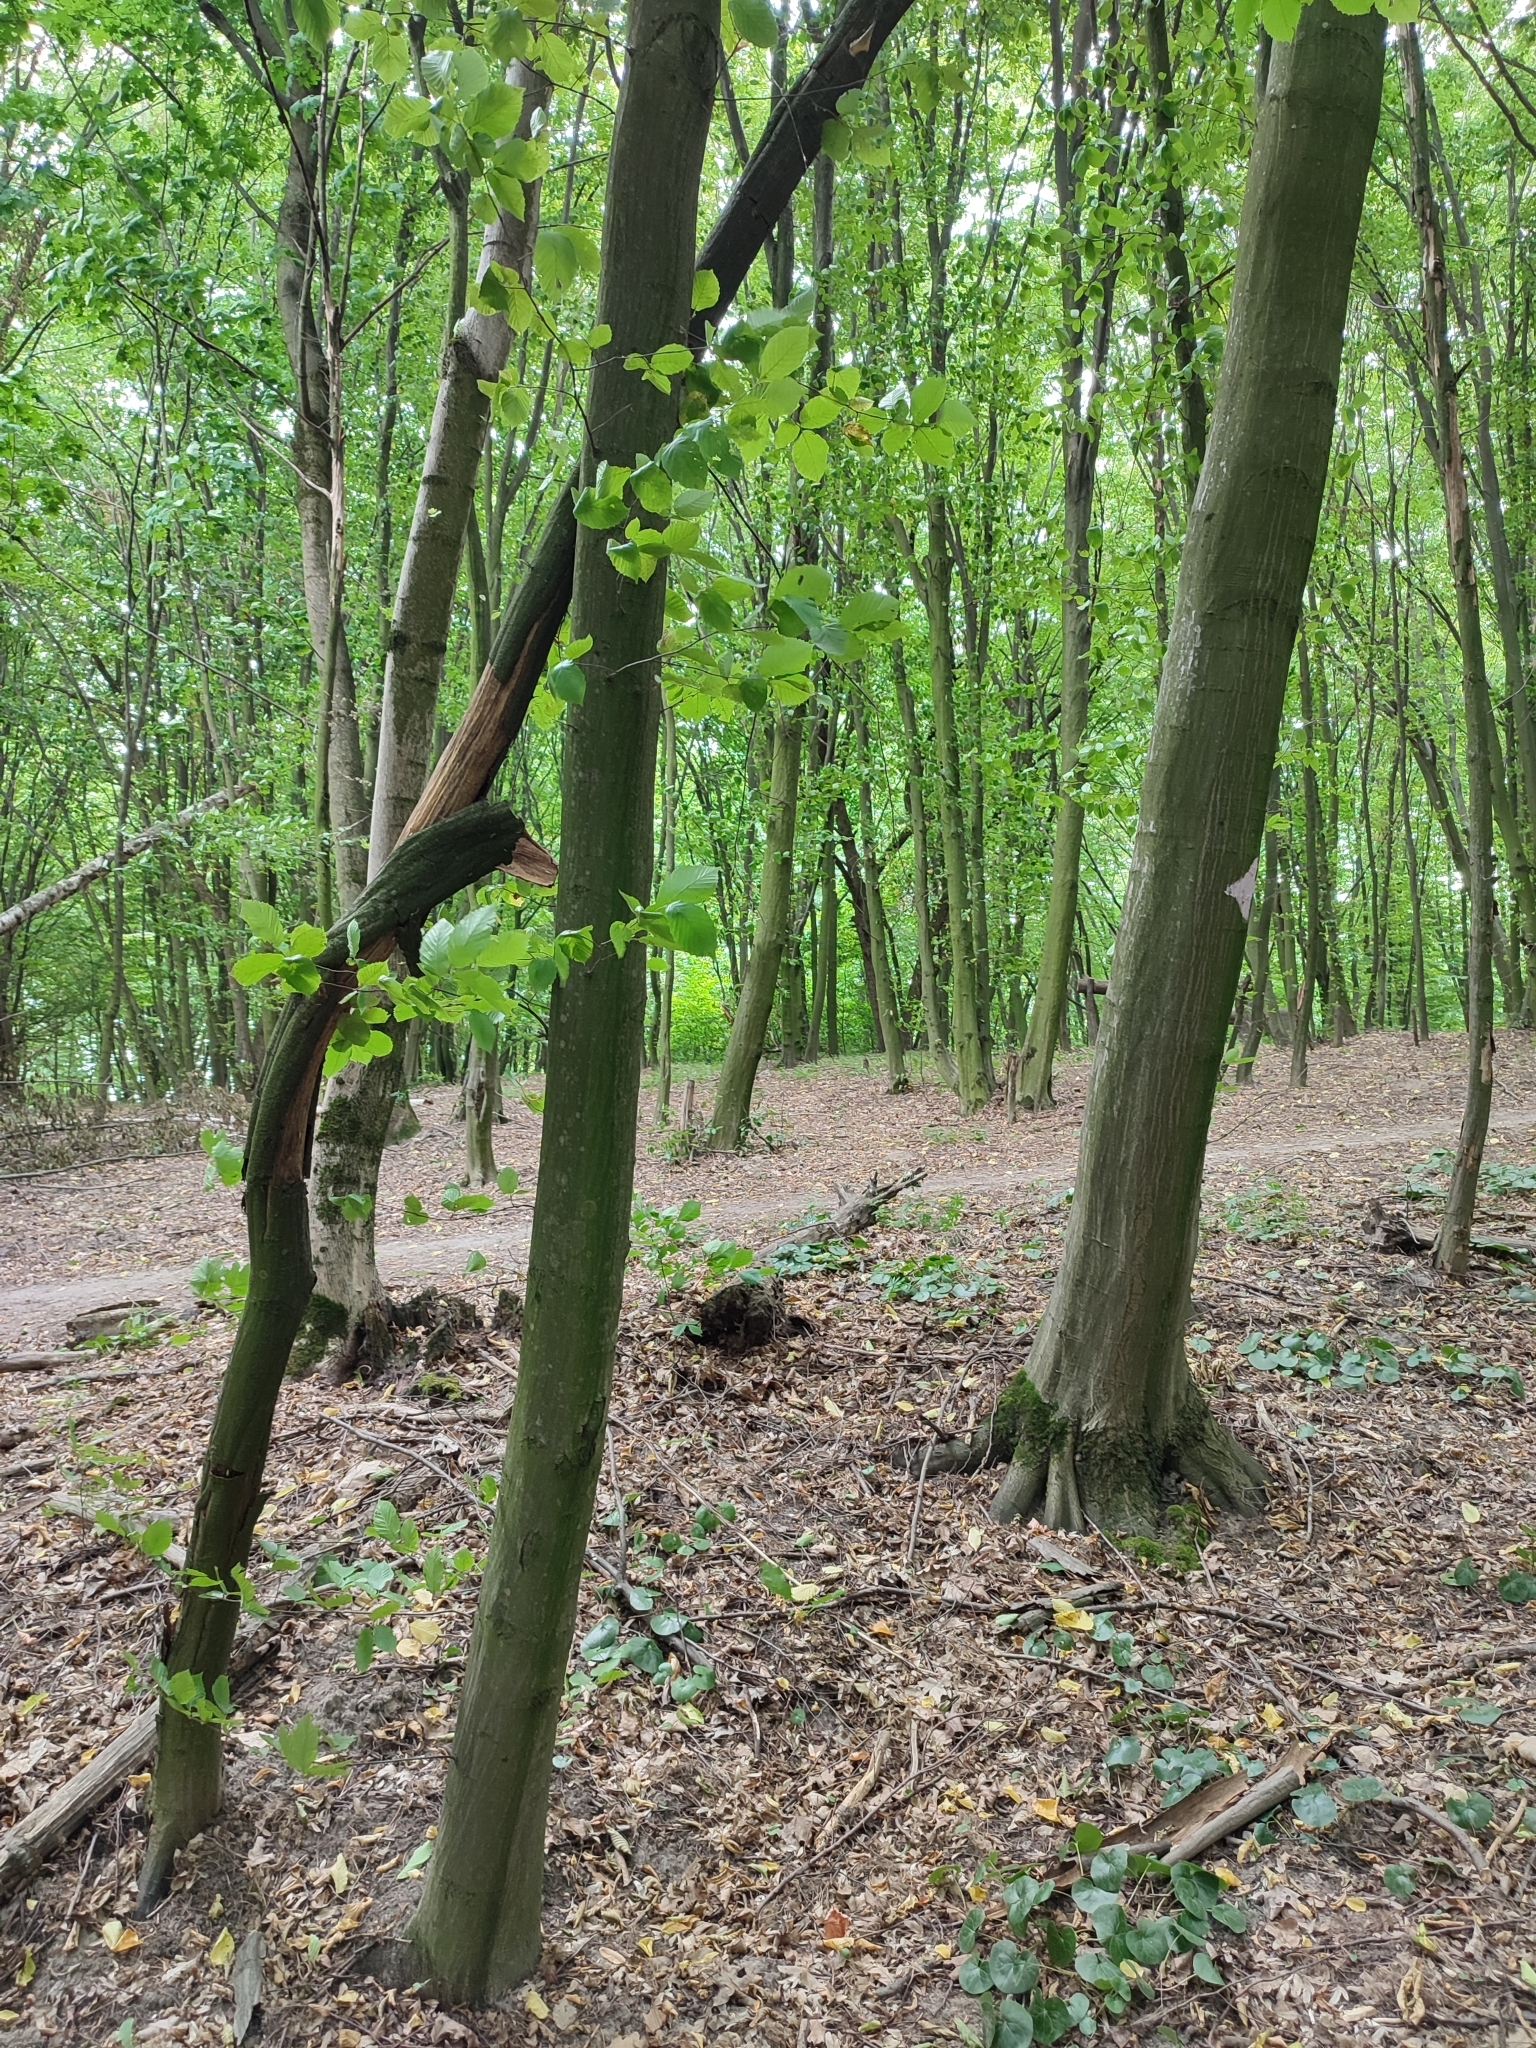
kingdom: Plantae
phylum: Tracheophyta
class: Magnoliopsida
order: Fagales
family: Betulaceae
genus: Carpinus
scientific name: Carpinus betulus
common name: Hornbeam
